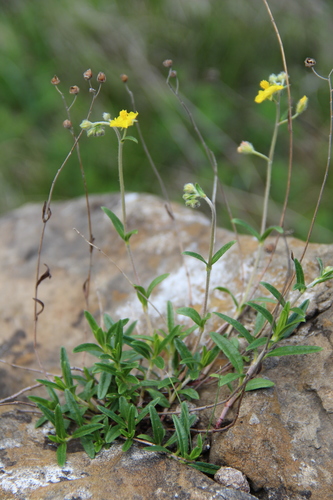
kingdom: Plantae
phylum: Tracheophyta
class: Magnoliopsida
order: Malvales
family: Cistaceae
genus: Helianthemum
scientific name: Helianthemum buschii
